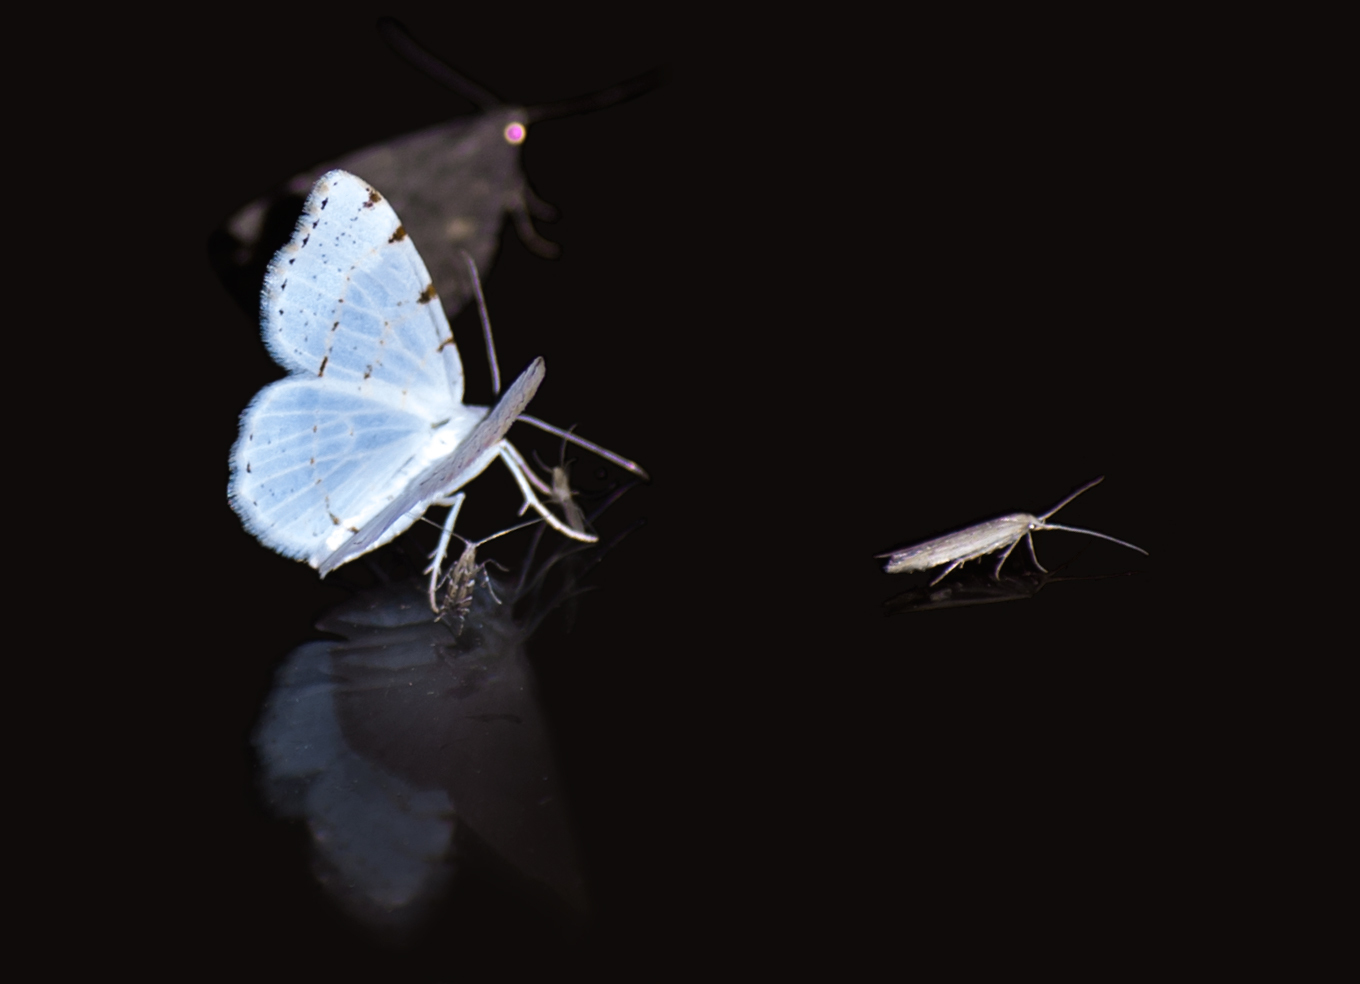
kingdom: Animalia
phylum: Arthropoda
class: Insecta
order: Lepidoptera
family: Geometridae
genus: Macaria
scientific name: Macaria pustularia
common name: Lesser maple spanworm moth
